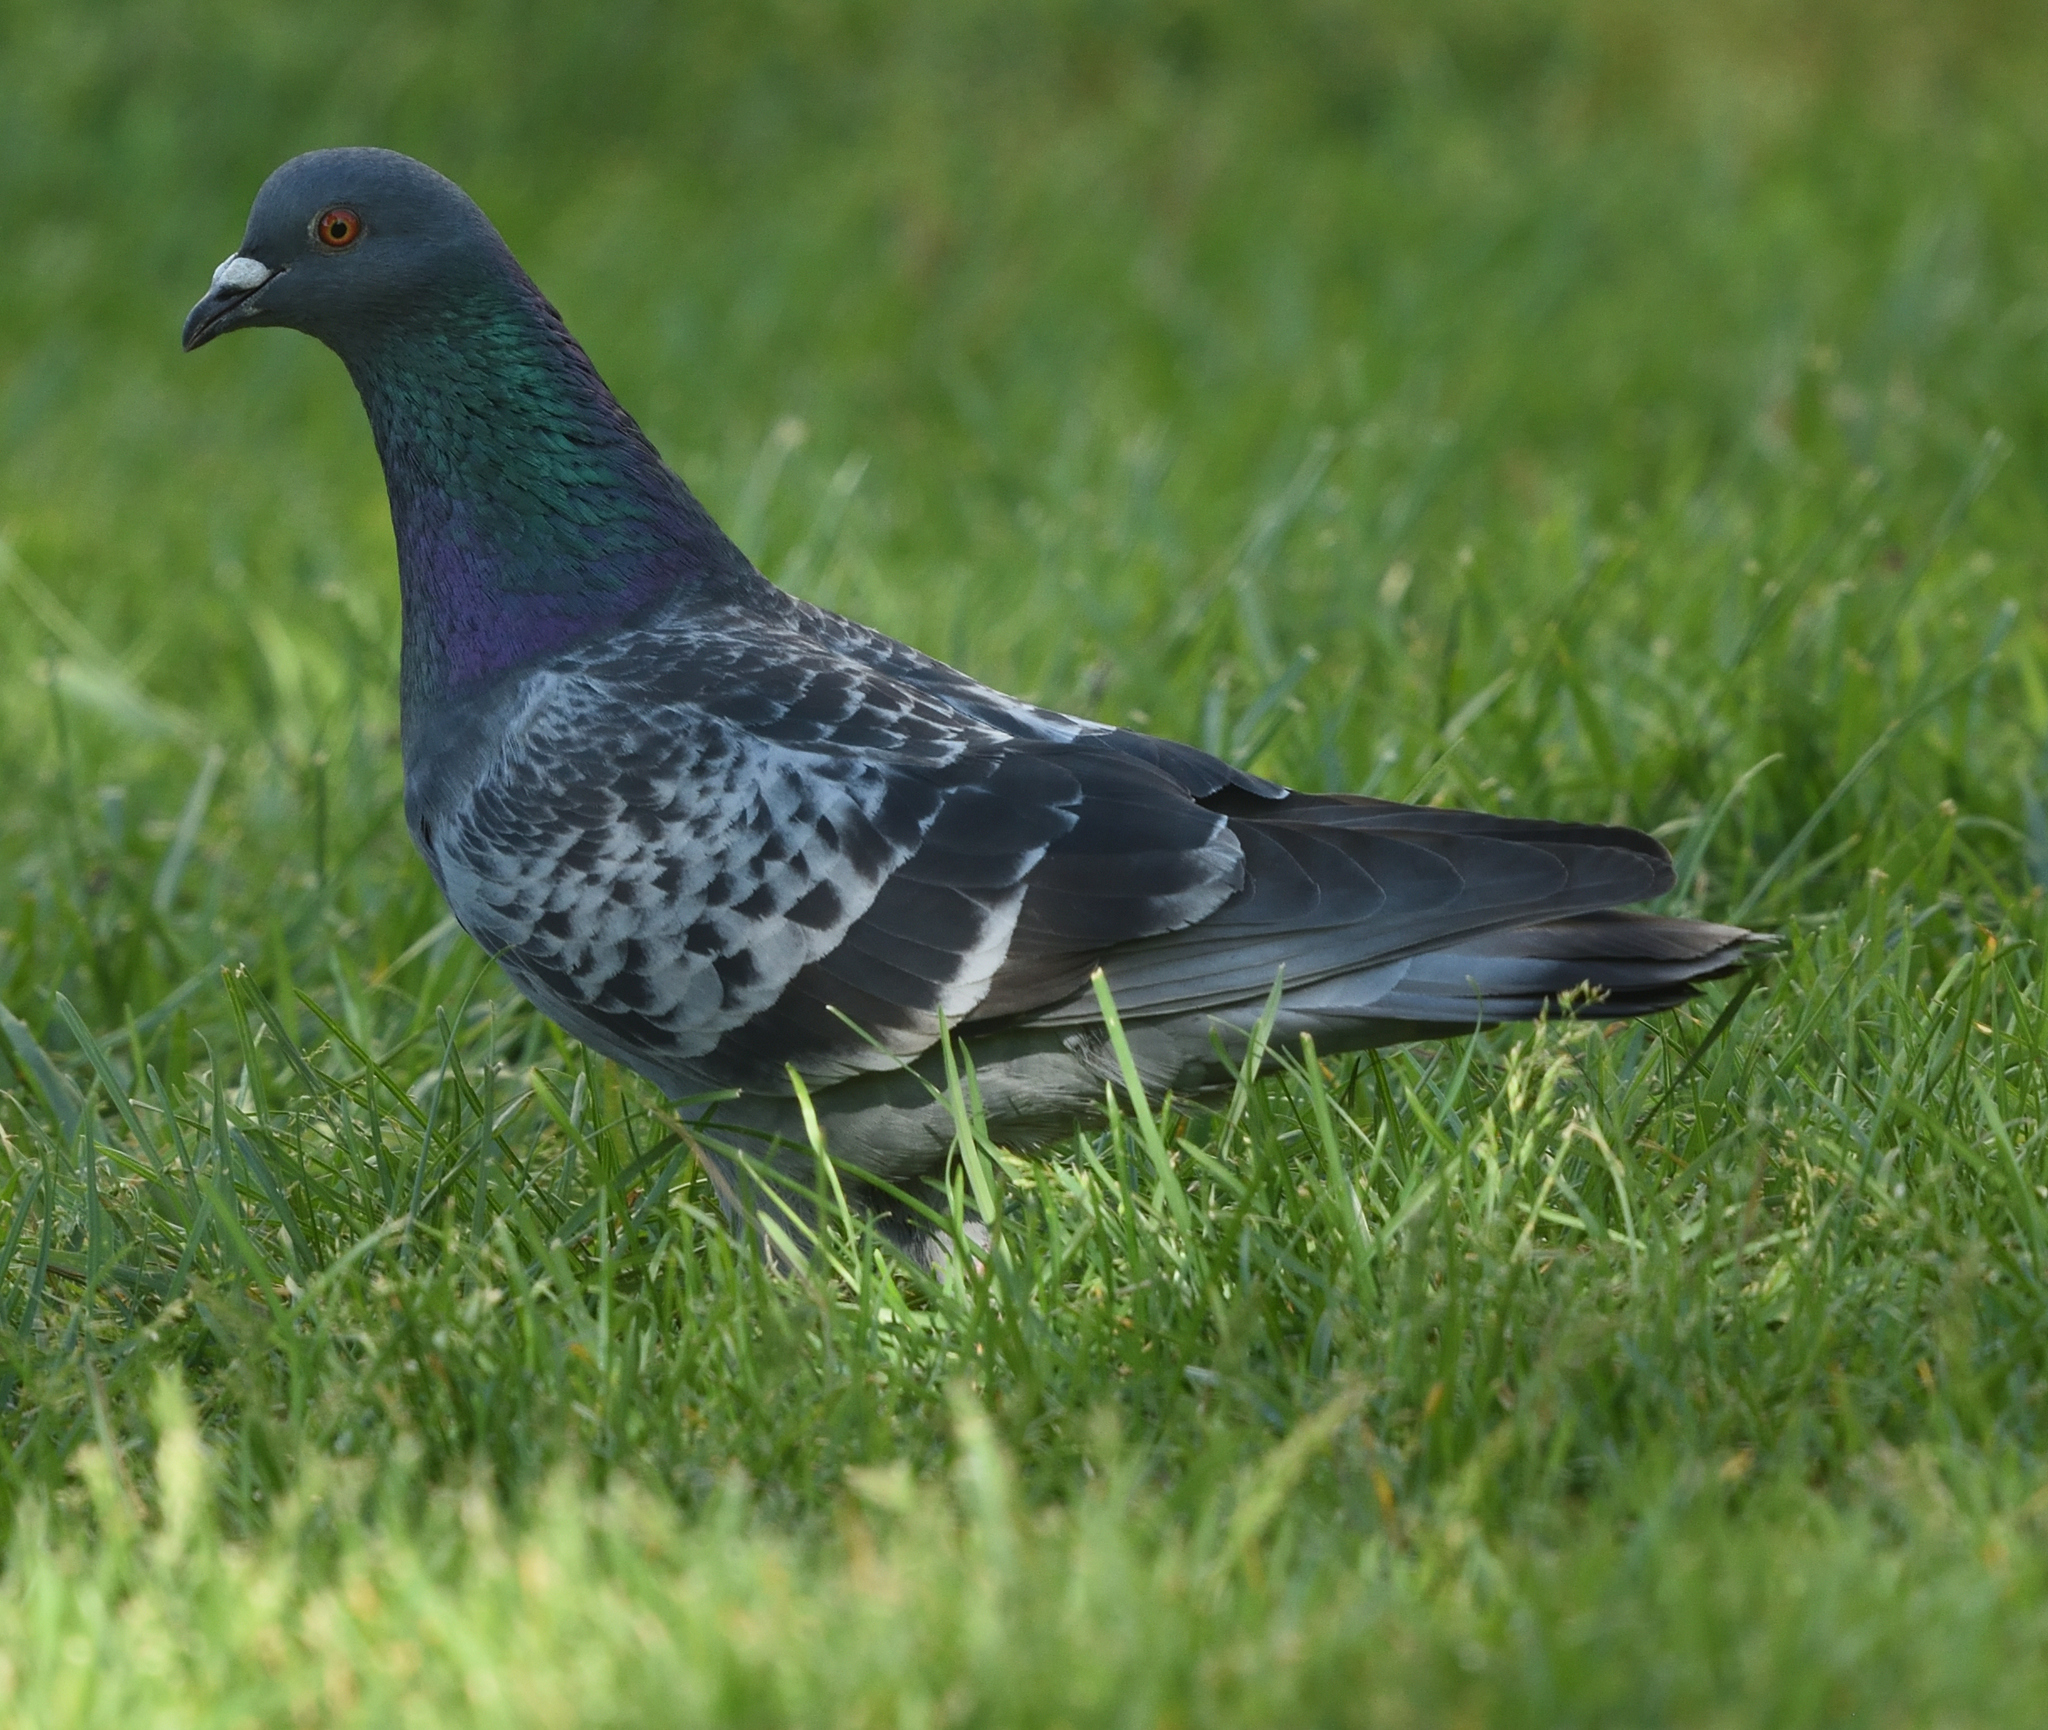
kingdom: Animalia
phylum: Chordata
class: Aves
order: Columbiformes
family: Columbidae
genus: Columba
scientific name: Columba livia
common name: Rock pigeon
